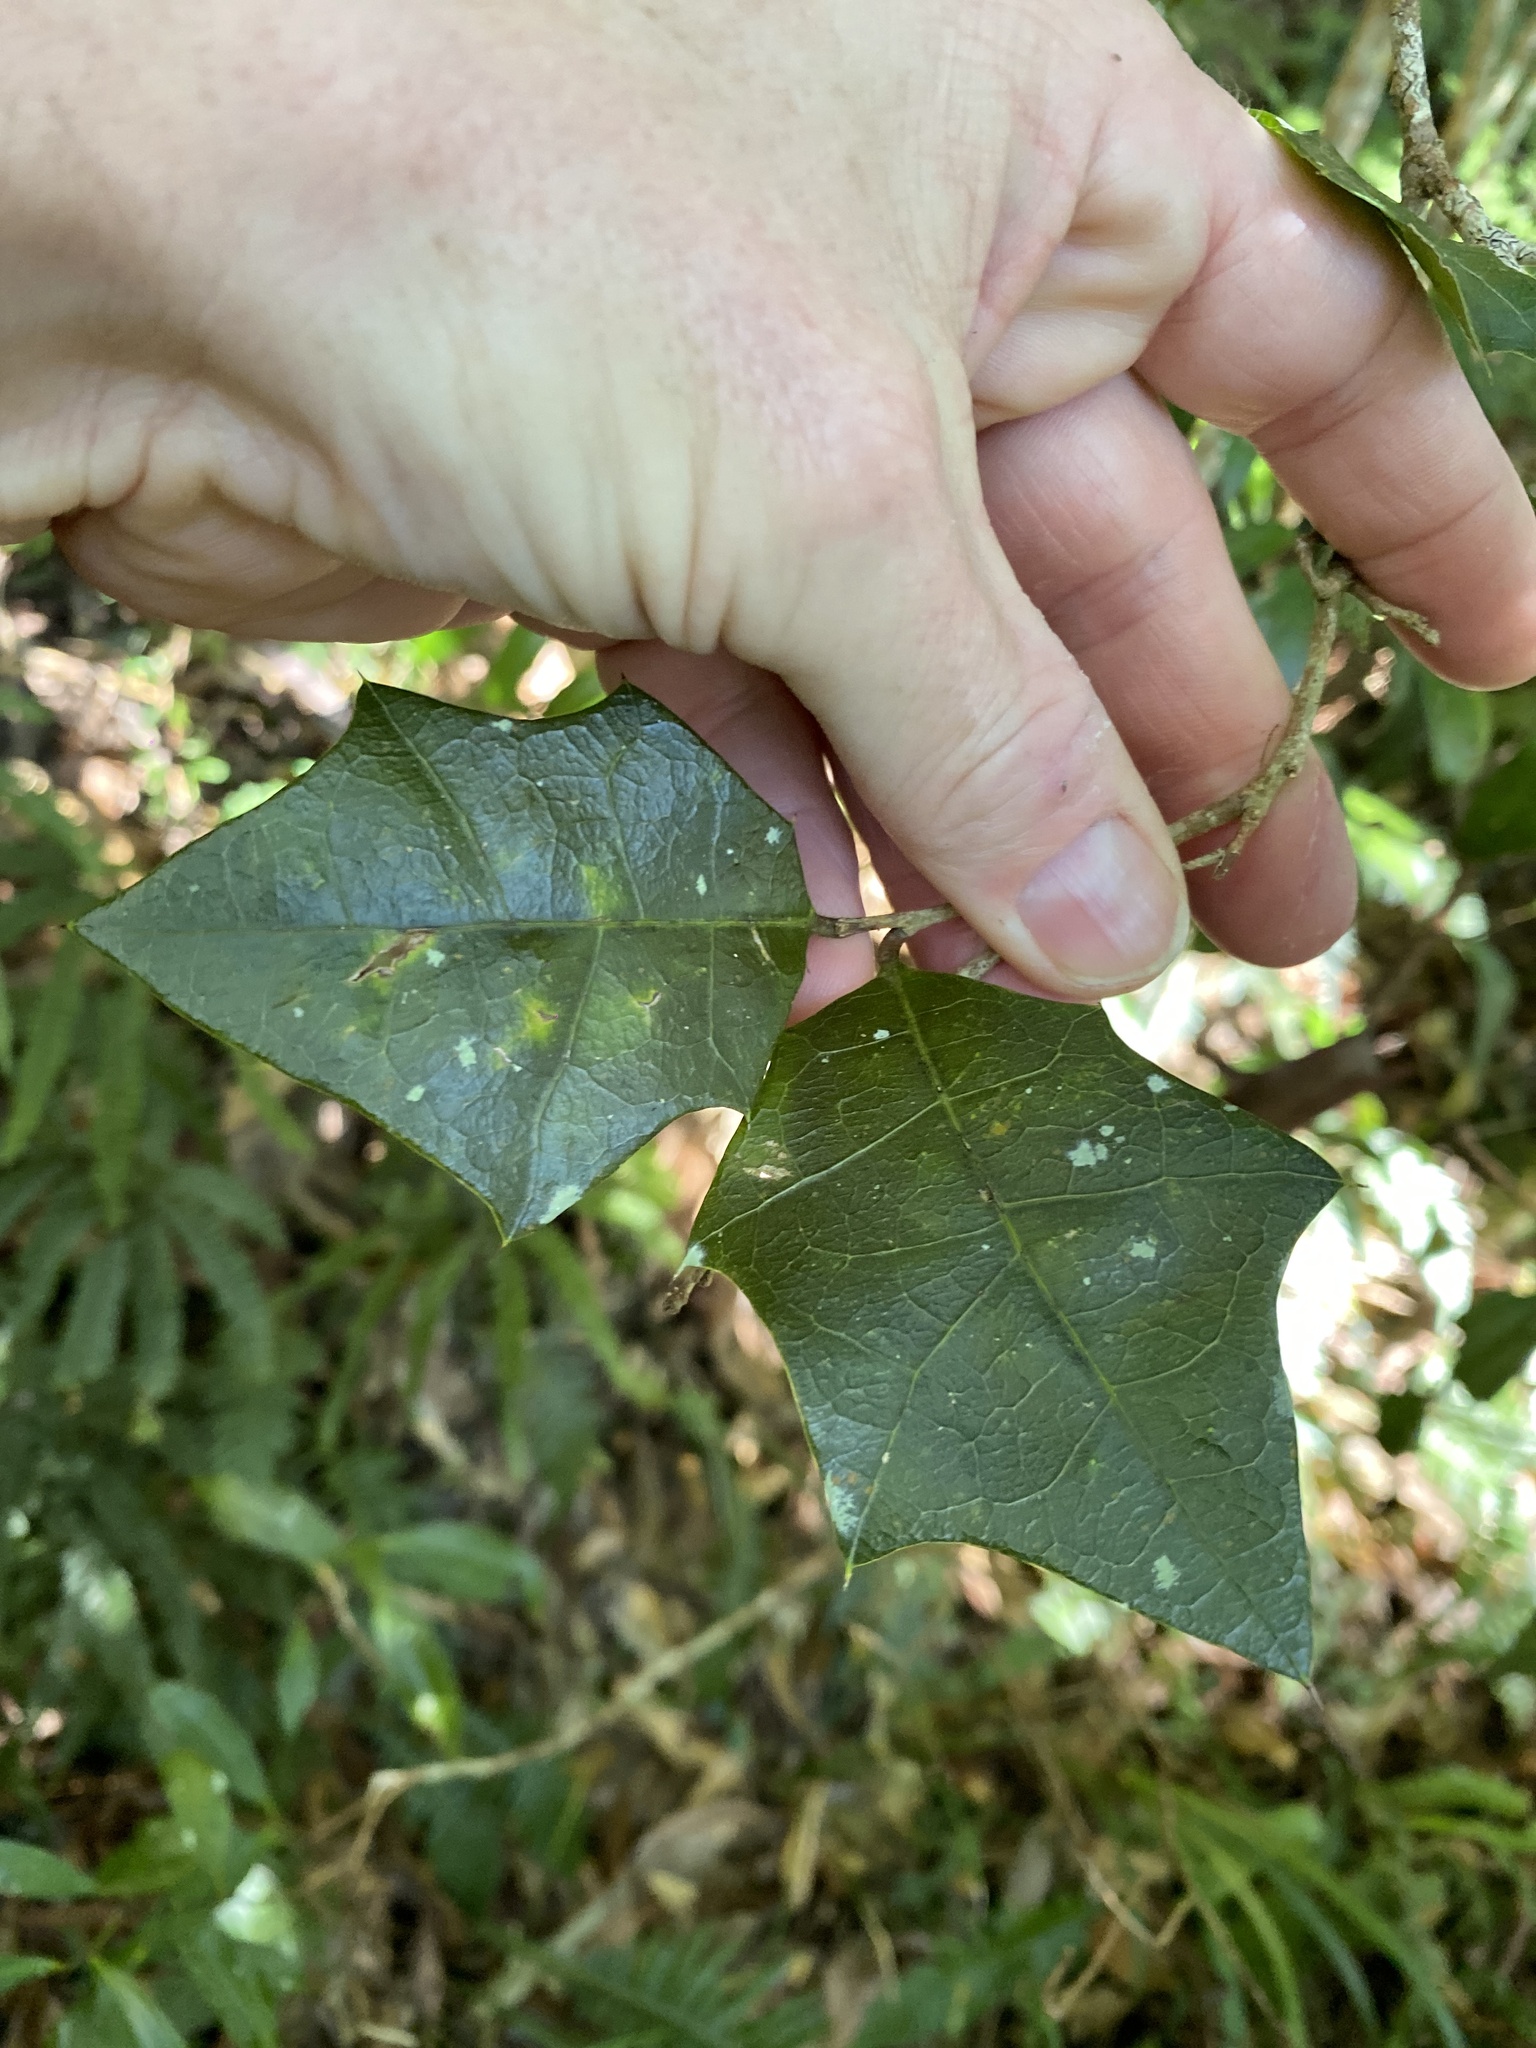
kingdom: Plantae
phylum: Tracheophyta
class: Magnoliopsida
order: Malpighiales
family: Euphorbiaceae
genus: Alchornea
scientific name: Alchornea ilicifolia
